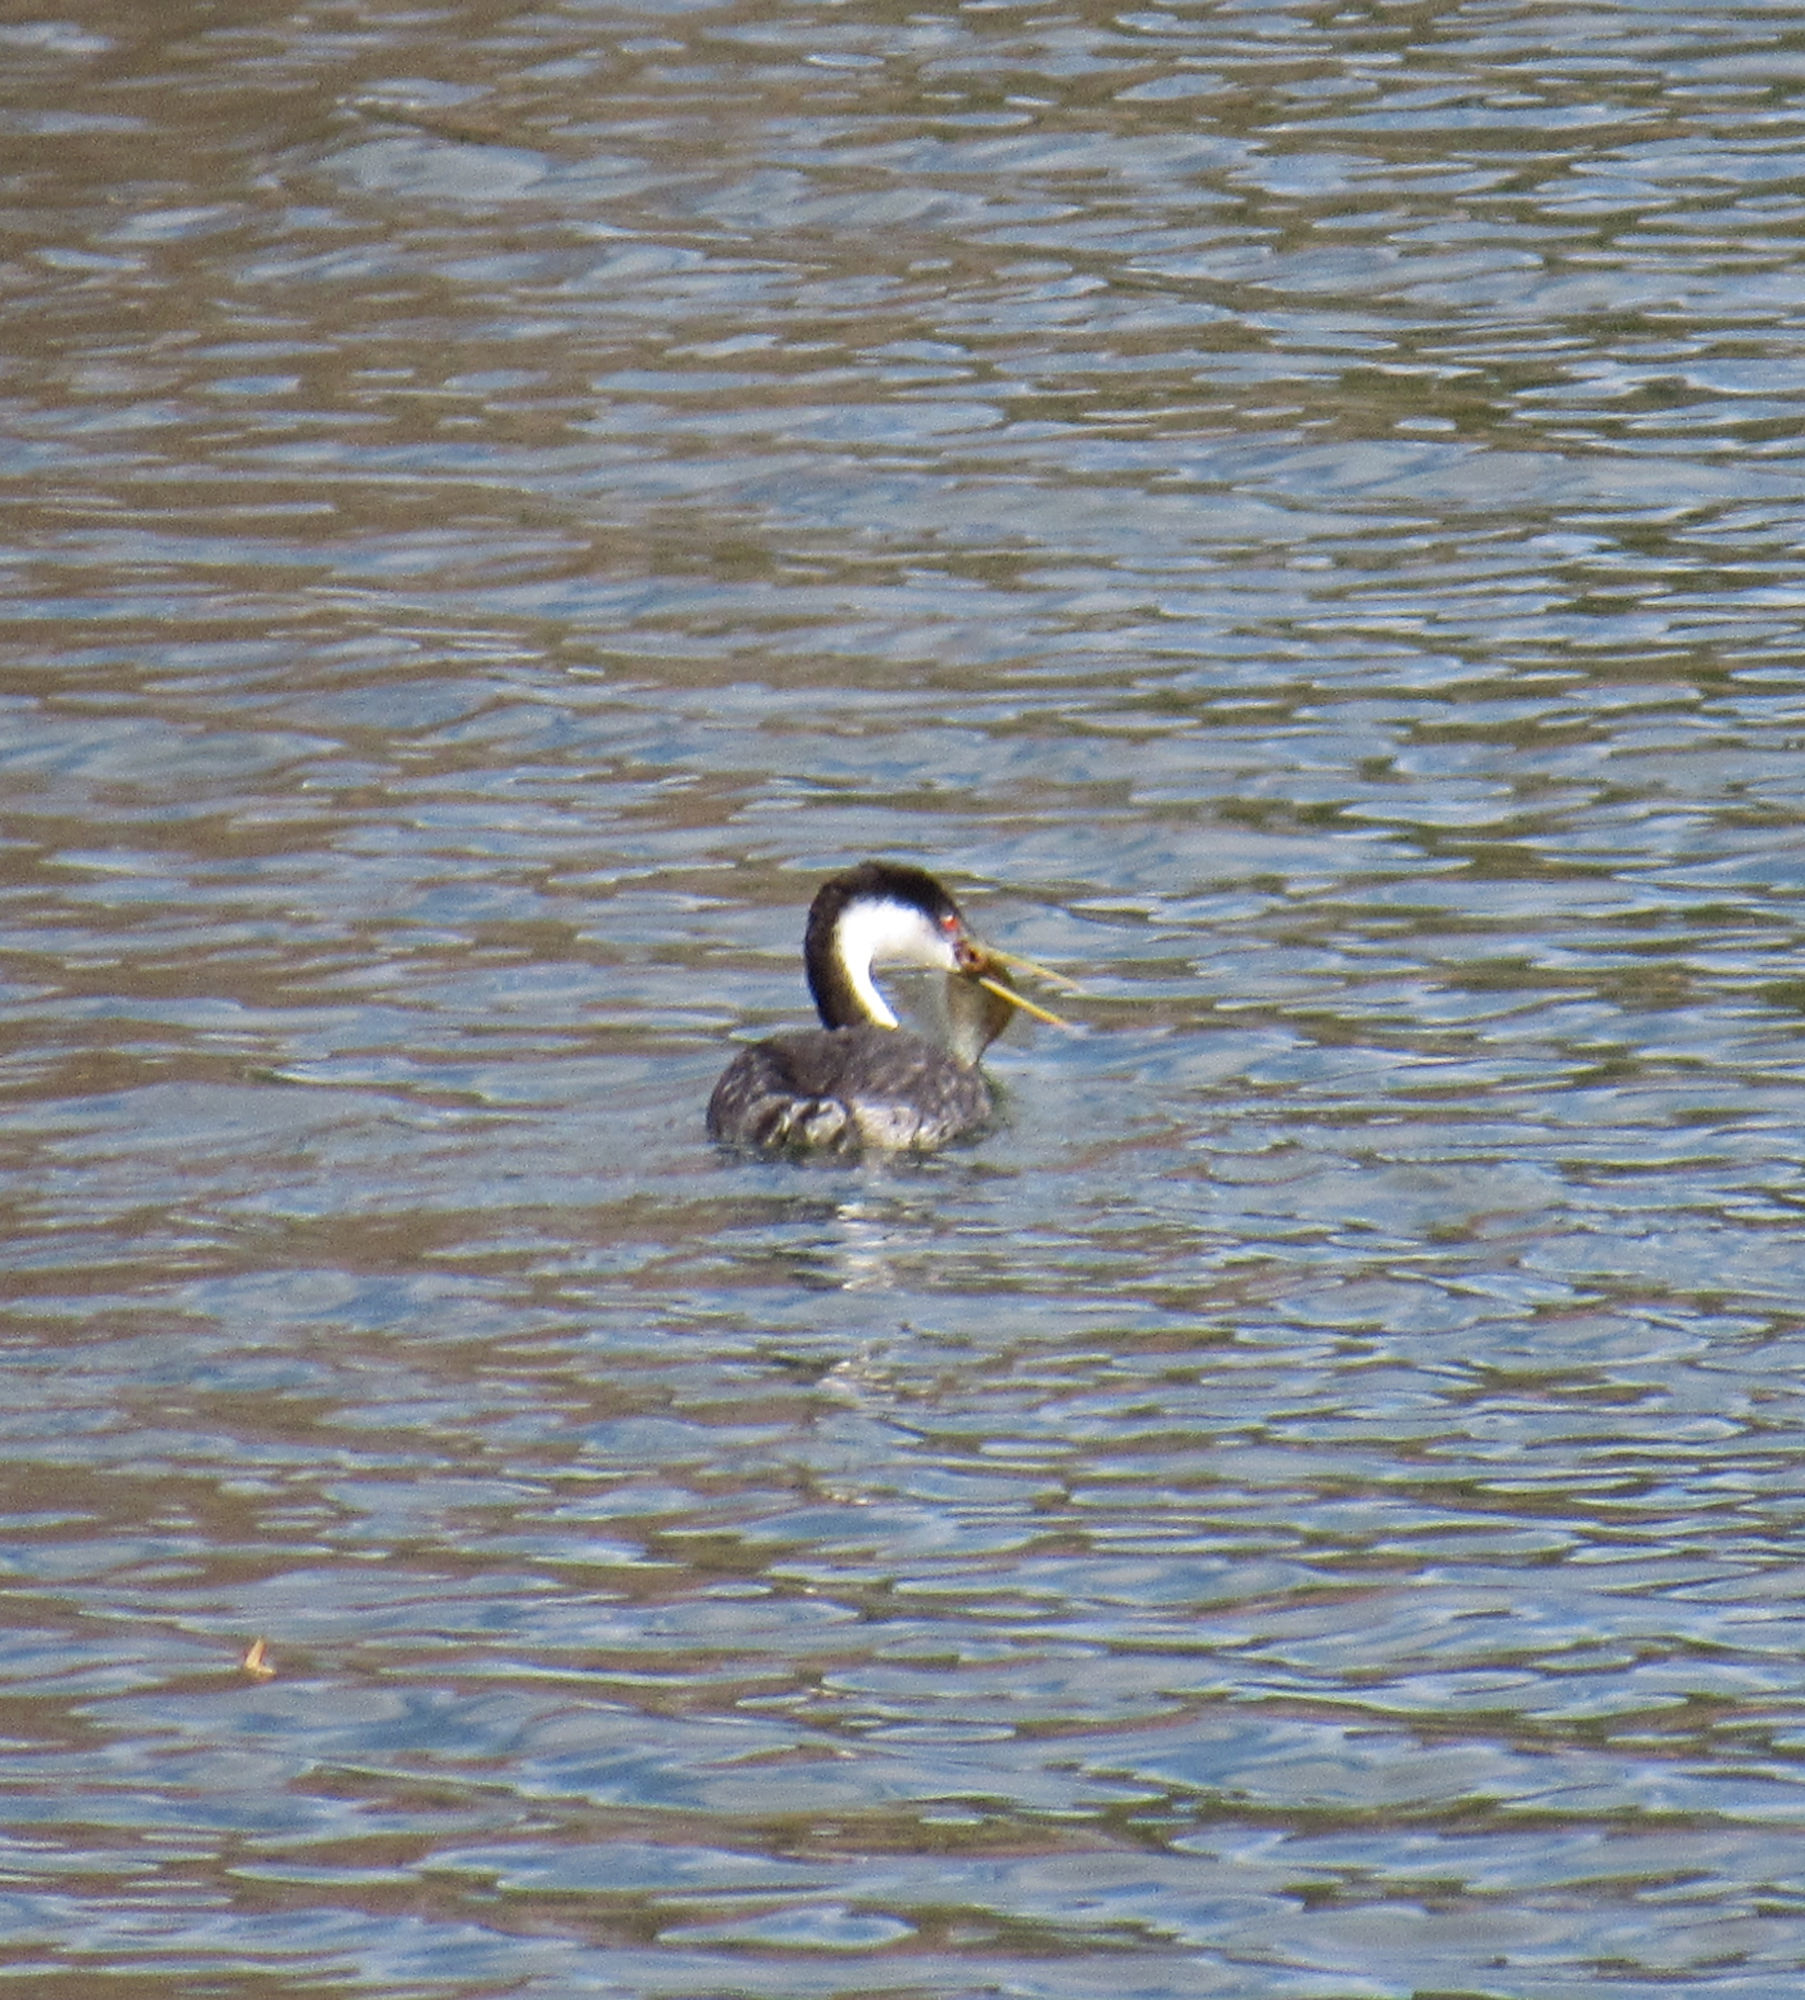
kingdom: Animalia
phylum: Chordata
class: Aves
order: Podicipediformes
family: Podicipedidae
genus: Aechmophorus
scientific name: Aechmophorus occidentalis
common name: Western grebe
